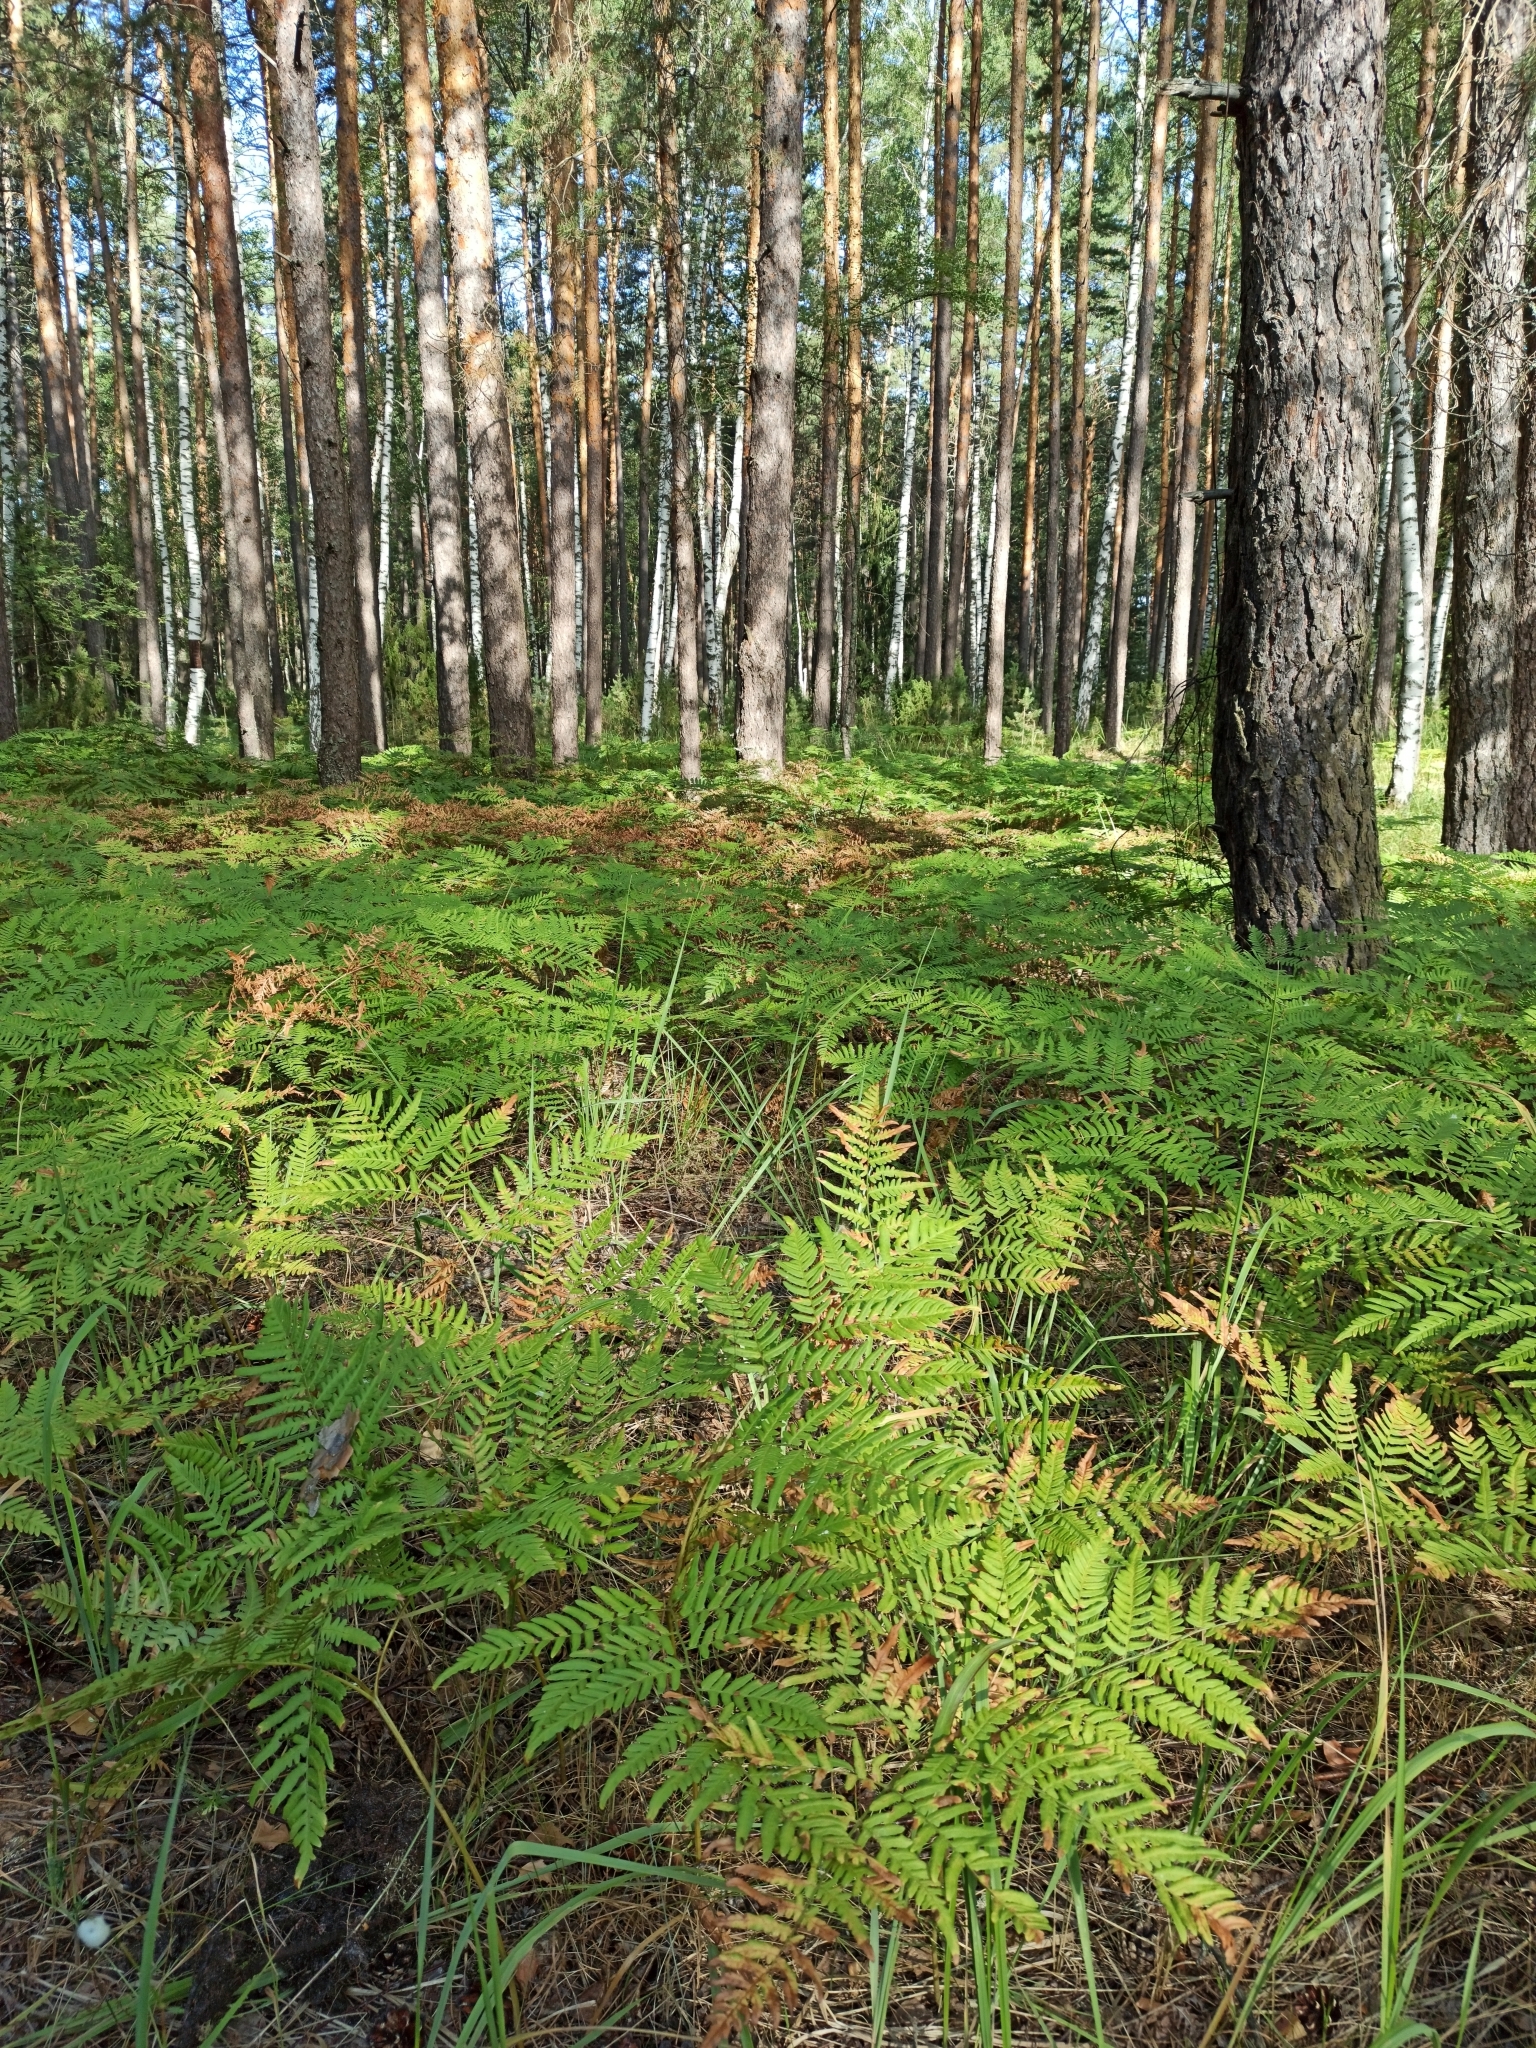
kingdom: Plantae
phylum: Tracheophyta
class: Polypodiopsida
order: Polypodiales
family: Dennstaedtiaceae
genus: Pteridium
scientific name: Pteridium aquilinum
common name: Bracken
